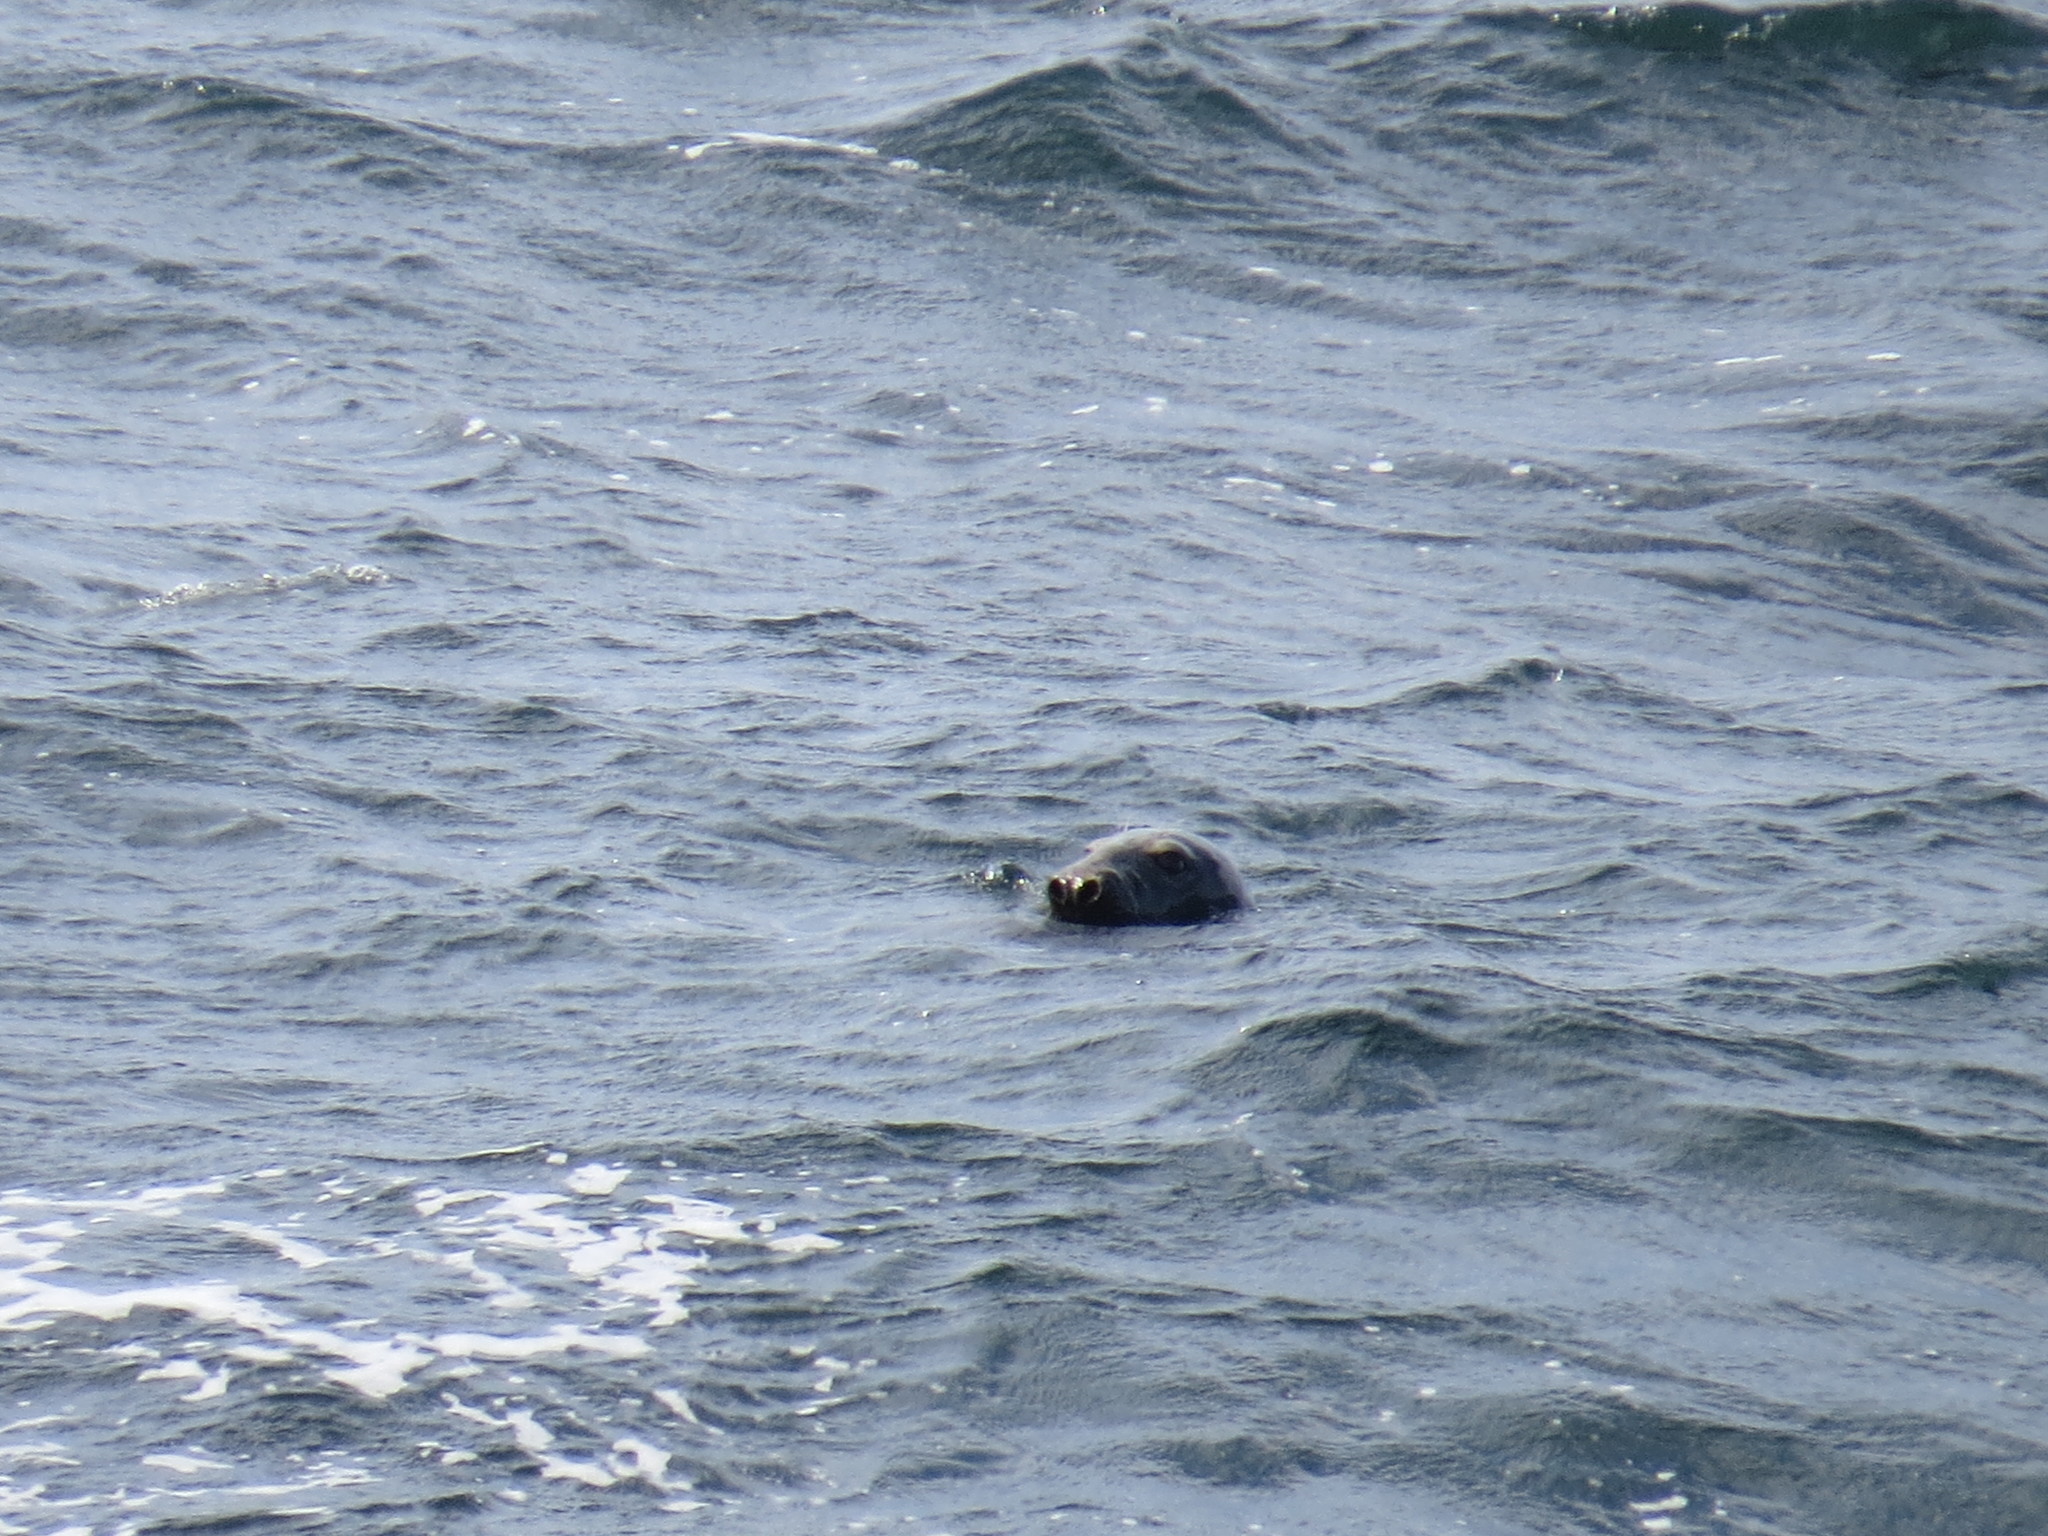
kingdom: Animalia
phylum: Chordata
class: Mammalia
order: Carnivora
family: Phocidae
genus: Halichoerus
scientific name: Halichoerus grypus
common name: Grey seal
